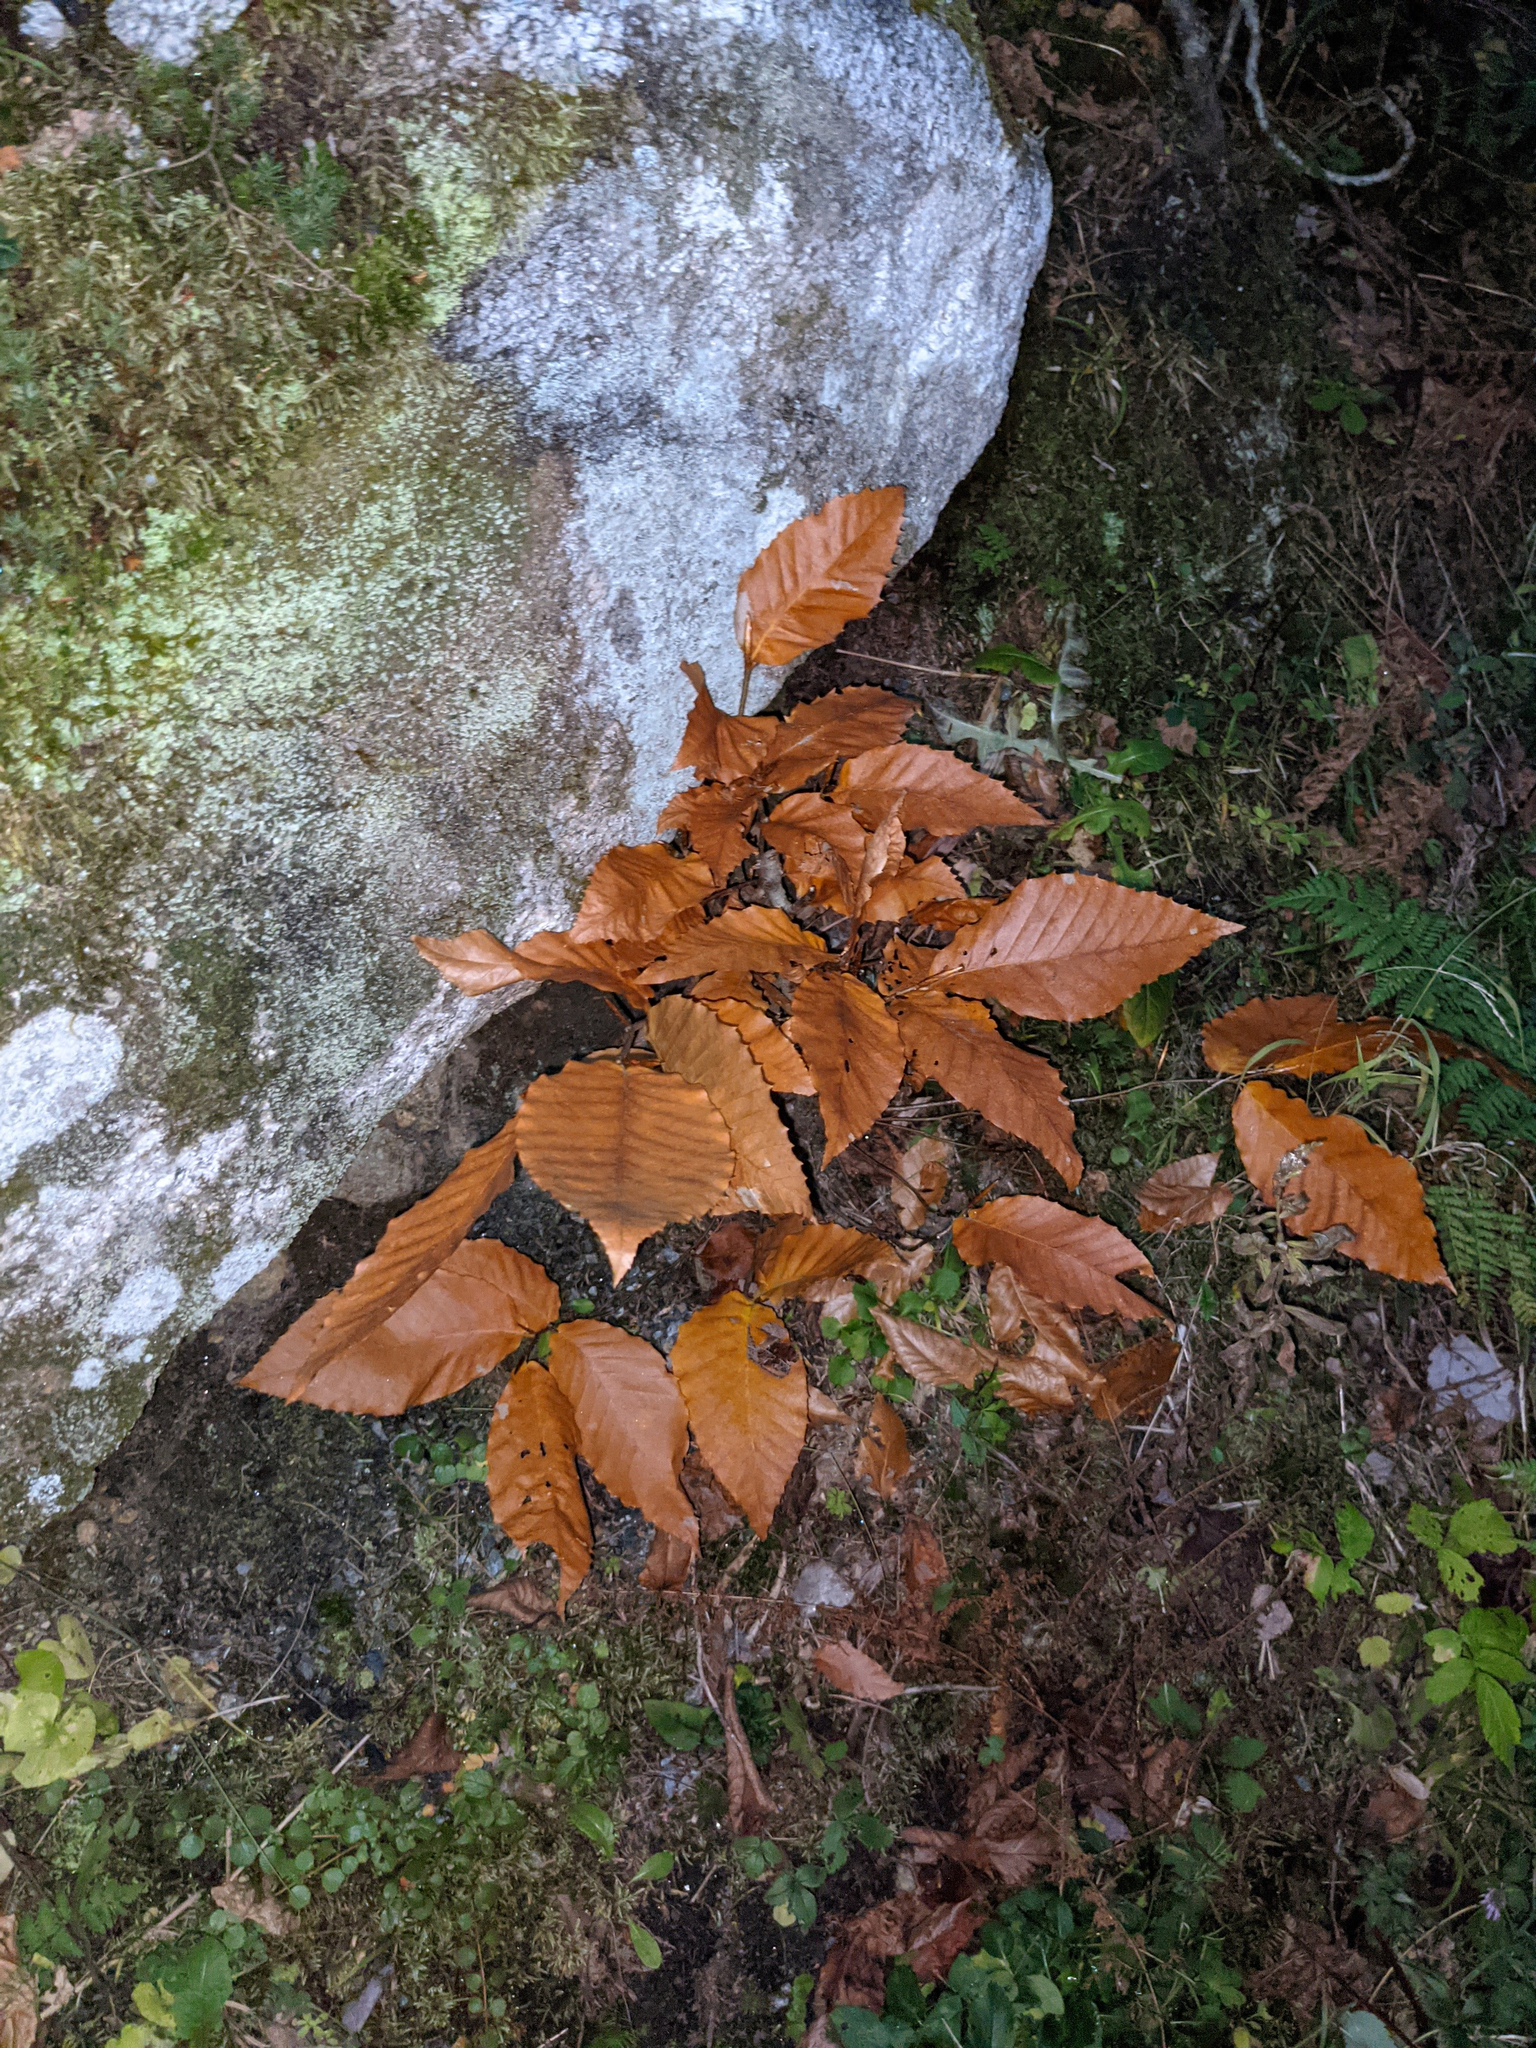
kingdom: Plantae
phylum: Tracheophyta
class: Magnoliopsida
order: Fagales
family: Fagaceae
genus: Fagus
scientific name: Fagus grandifolia
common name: American beech
